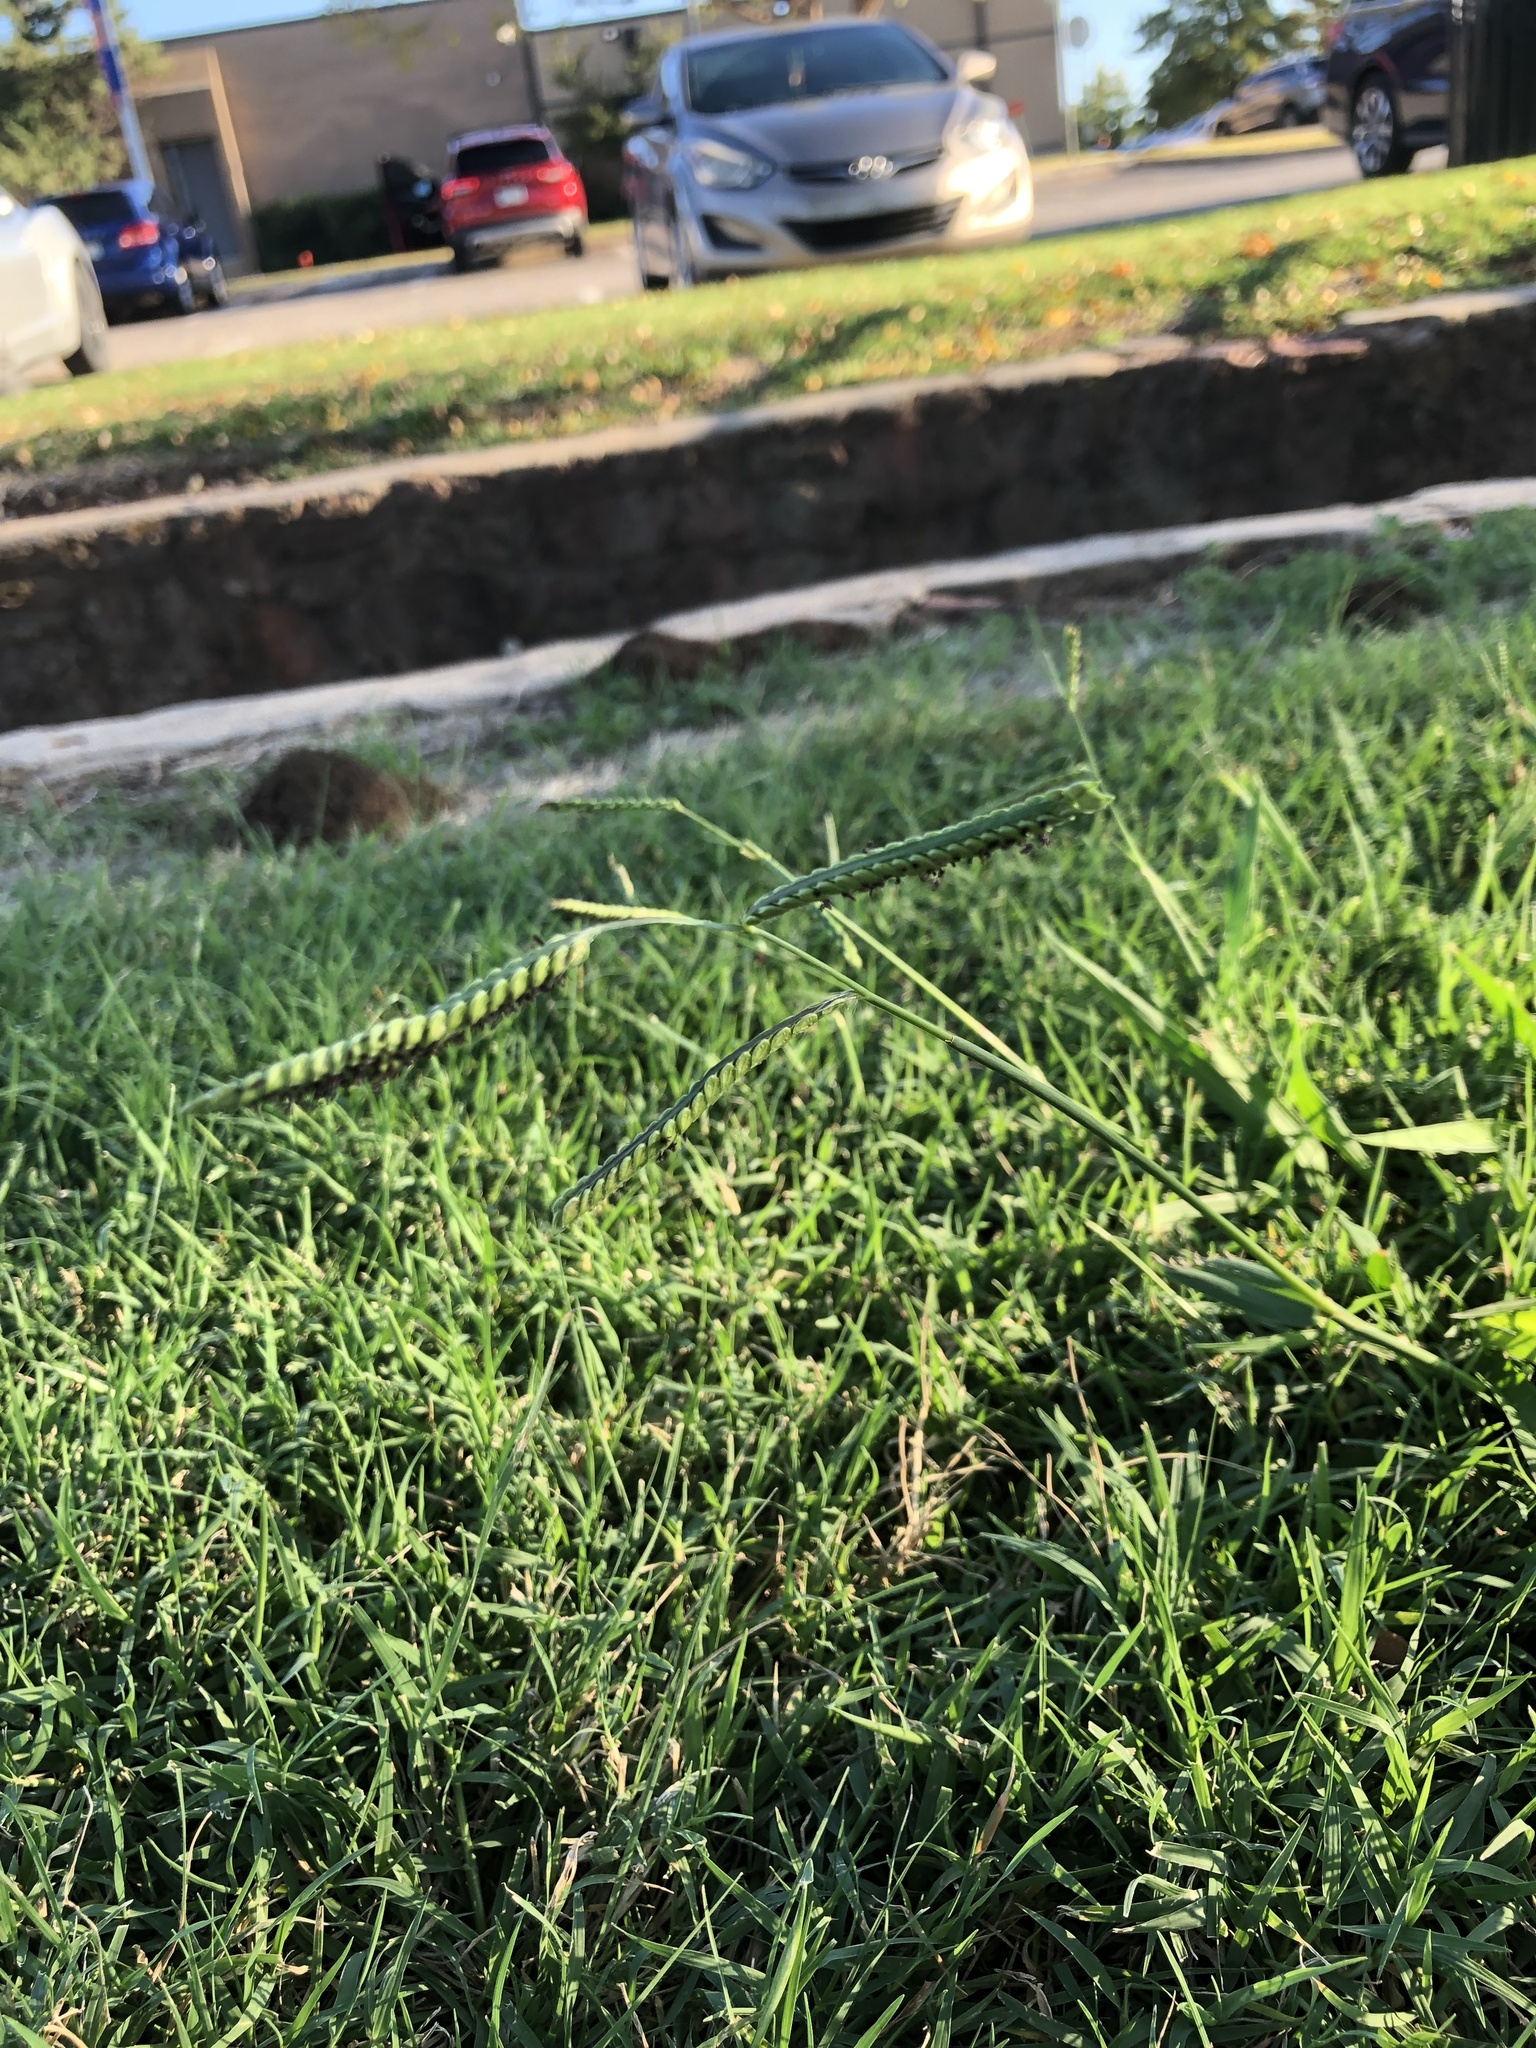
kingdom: Plantae
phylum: Tracheophyta
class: Liliopsida
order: Poales
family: Poaceae
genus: Paspalum
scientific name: Paspalum dilatatum
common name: Dallisgrass
